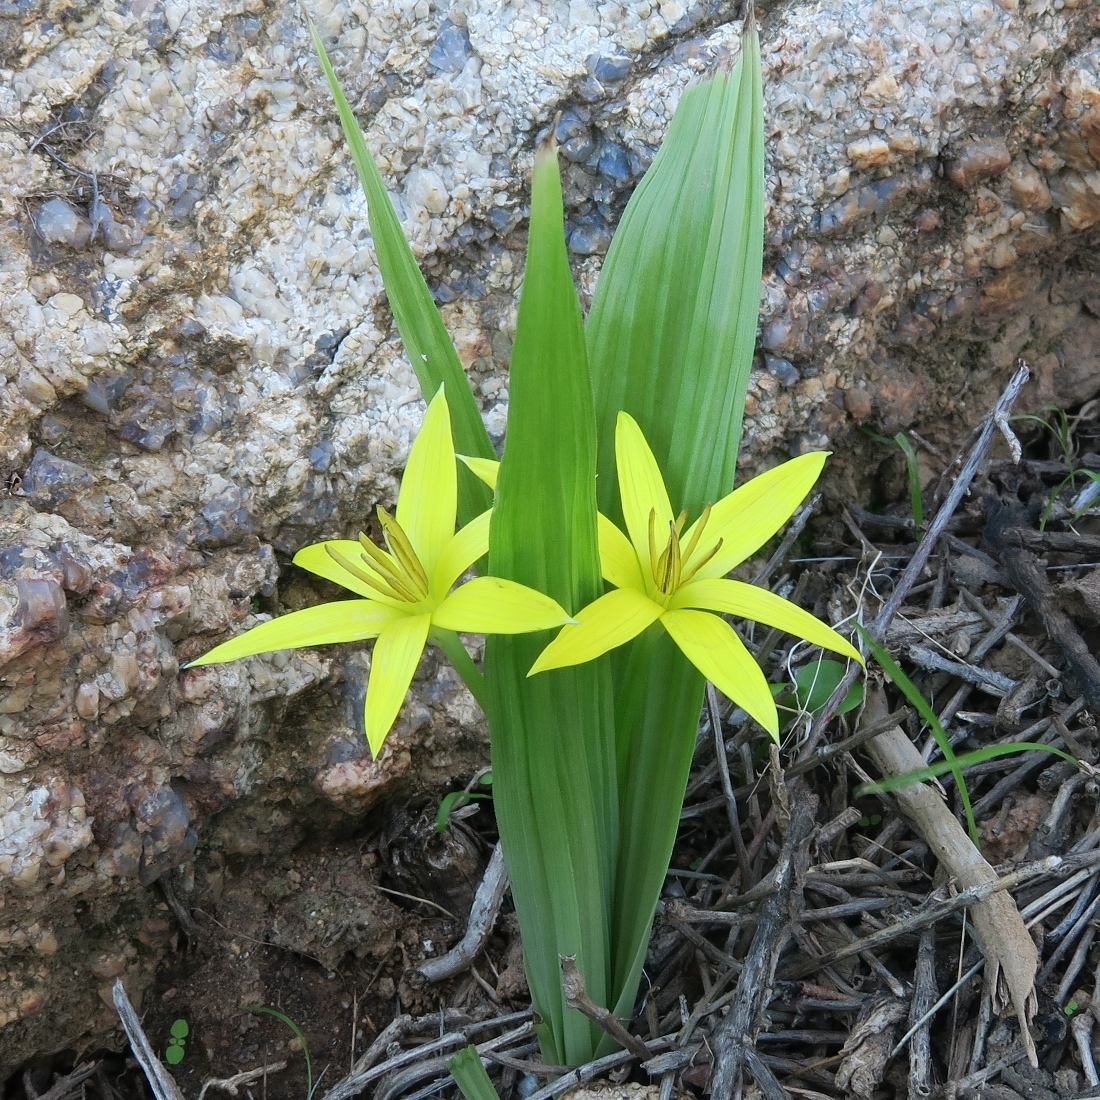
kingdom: Plantae
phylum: Tracheophyta
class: Liliopsida
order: Asparagales
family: Hypoxidaceae
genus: Empodium
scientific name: Empodium namaquensis
